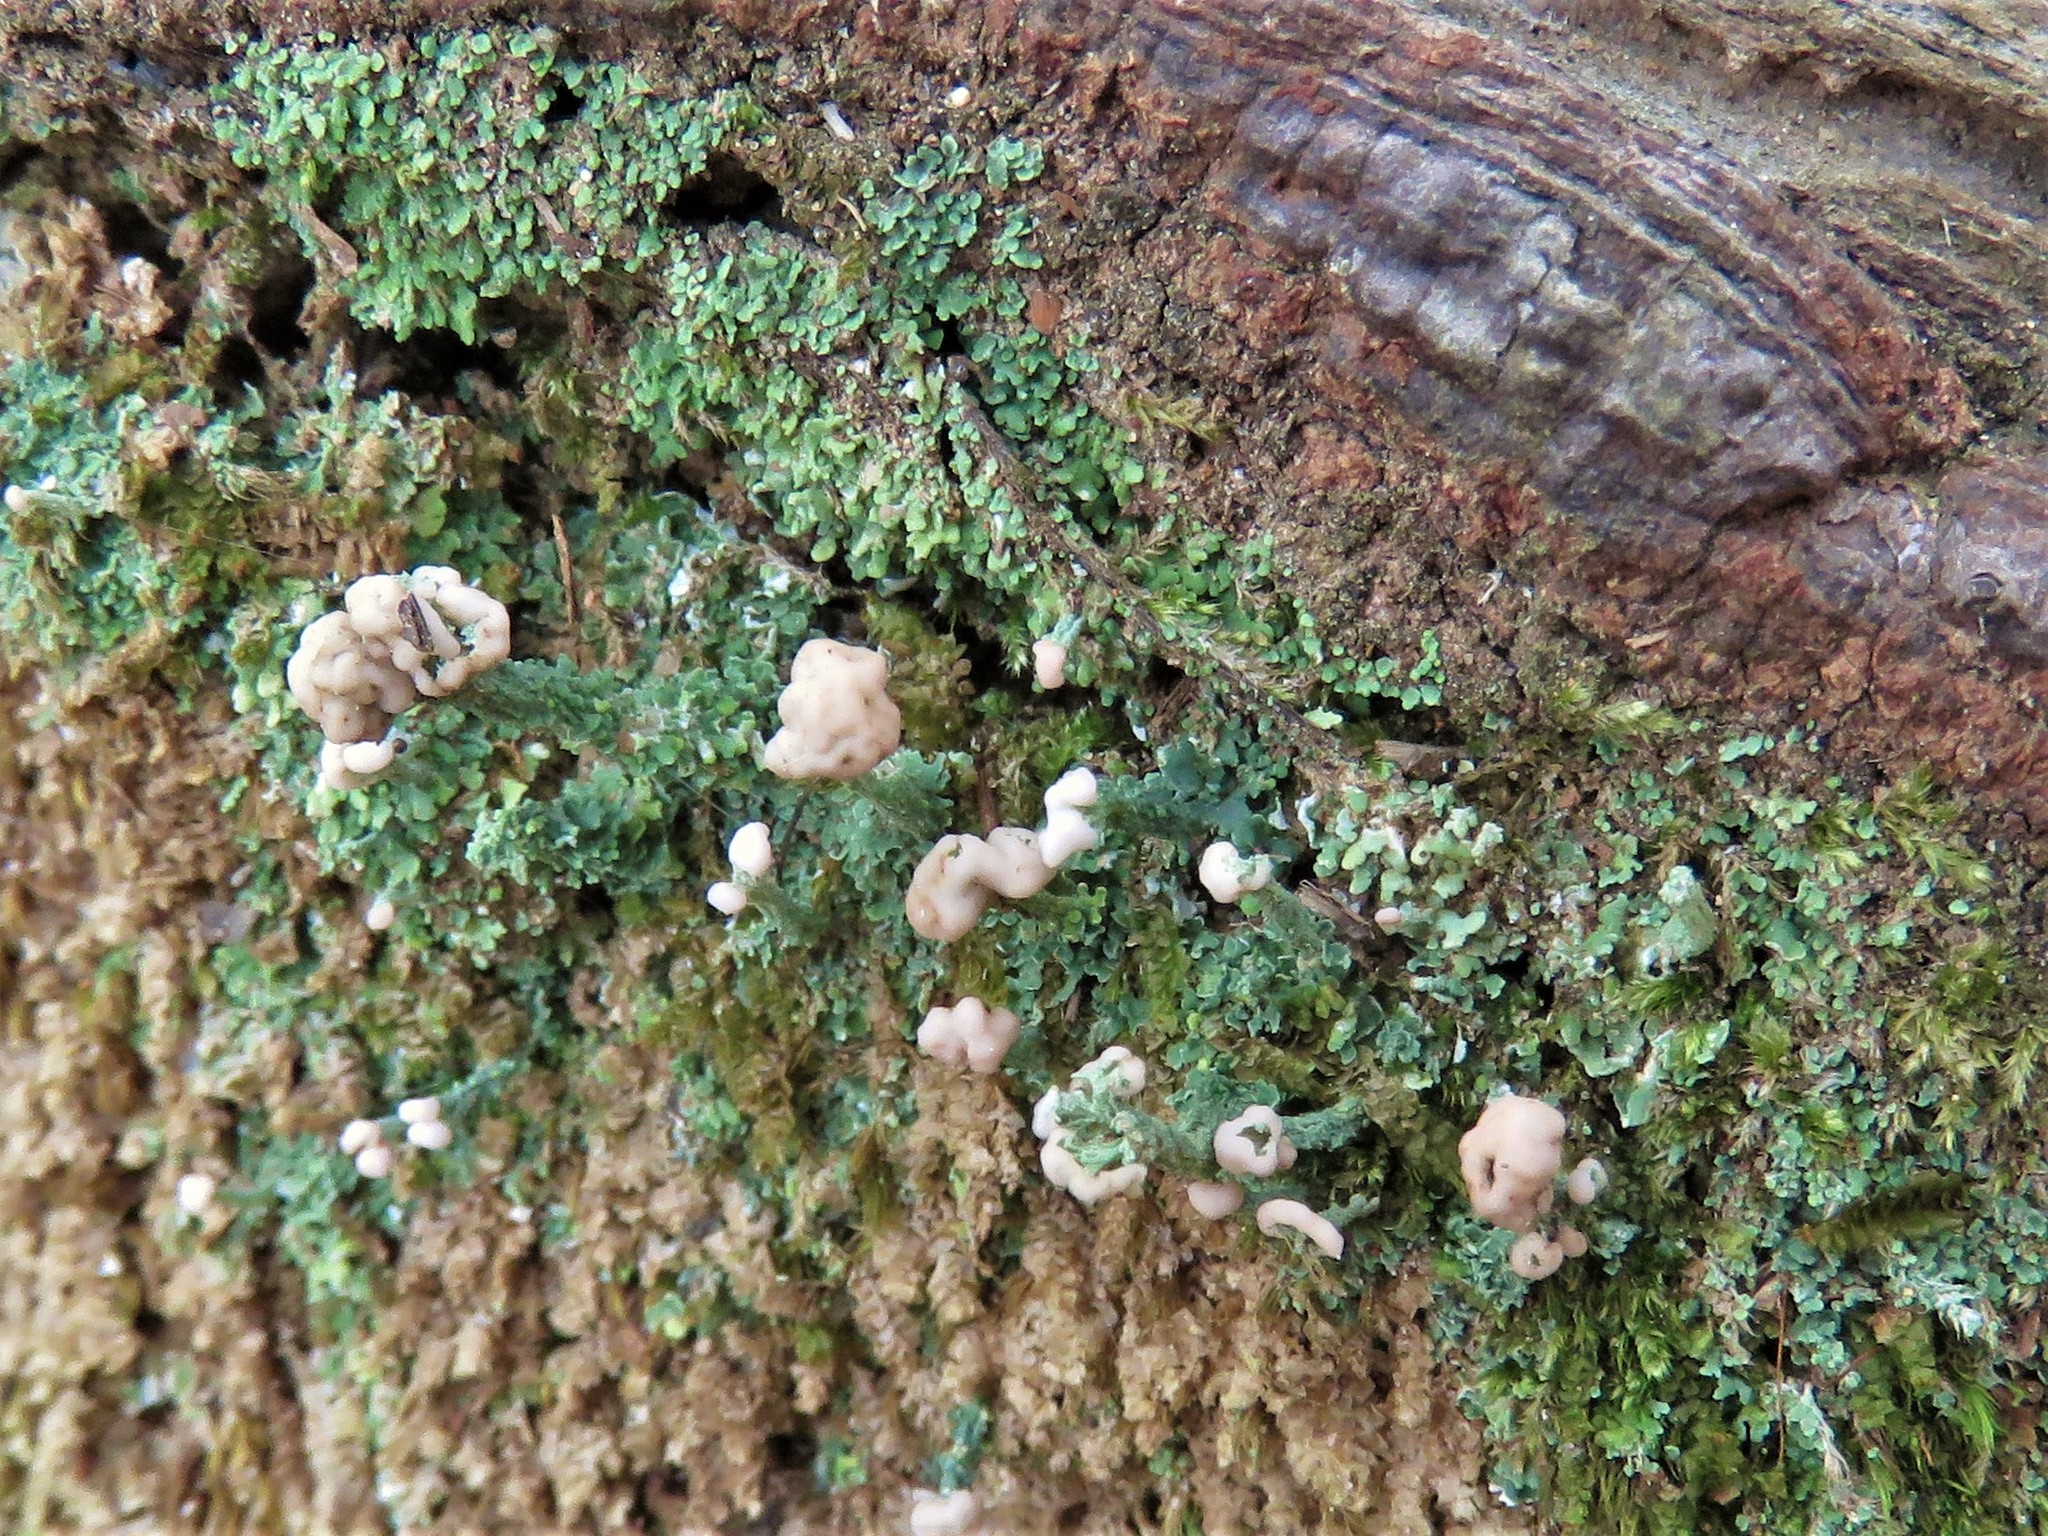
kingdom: Fungi
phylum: Ascomycota
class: Lecanoromycetes
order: Lecanorales
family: Cladoniaceae
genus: Cladonia
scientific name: Cladonia peziziformis
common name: Cup lichen
